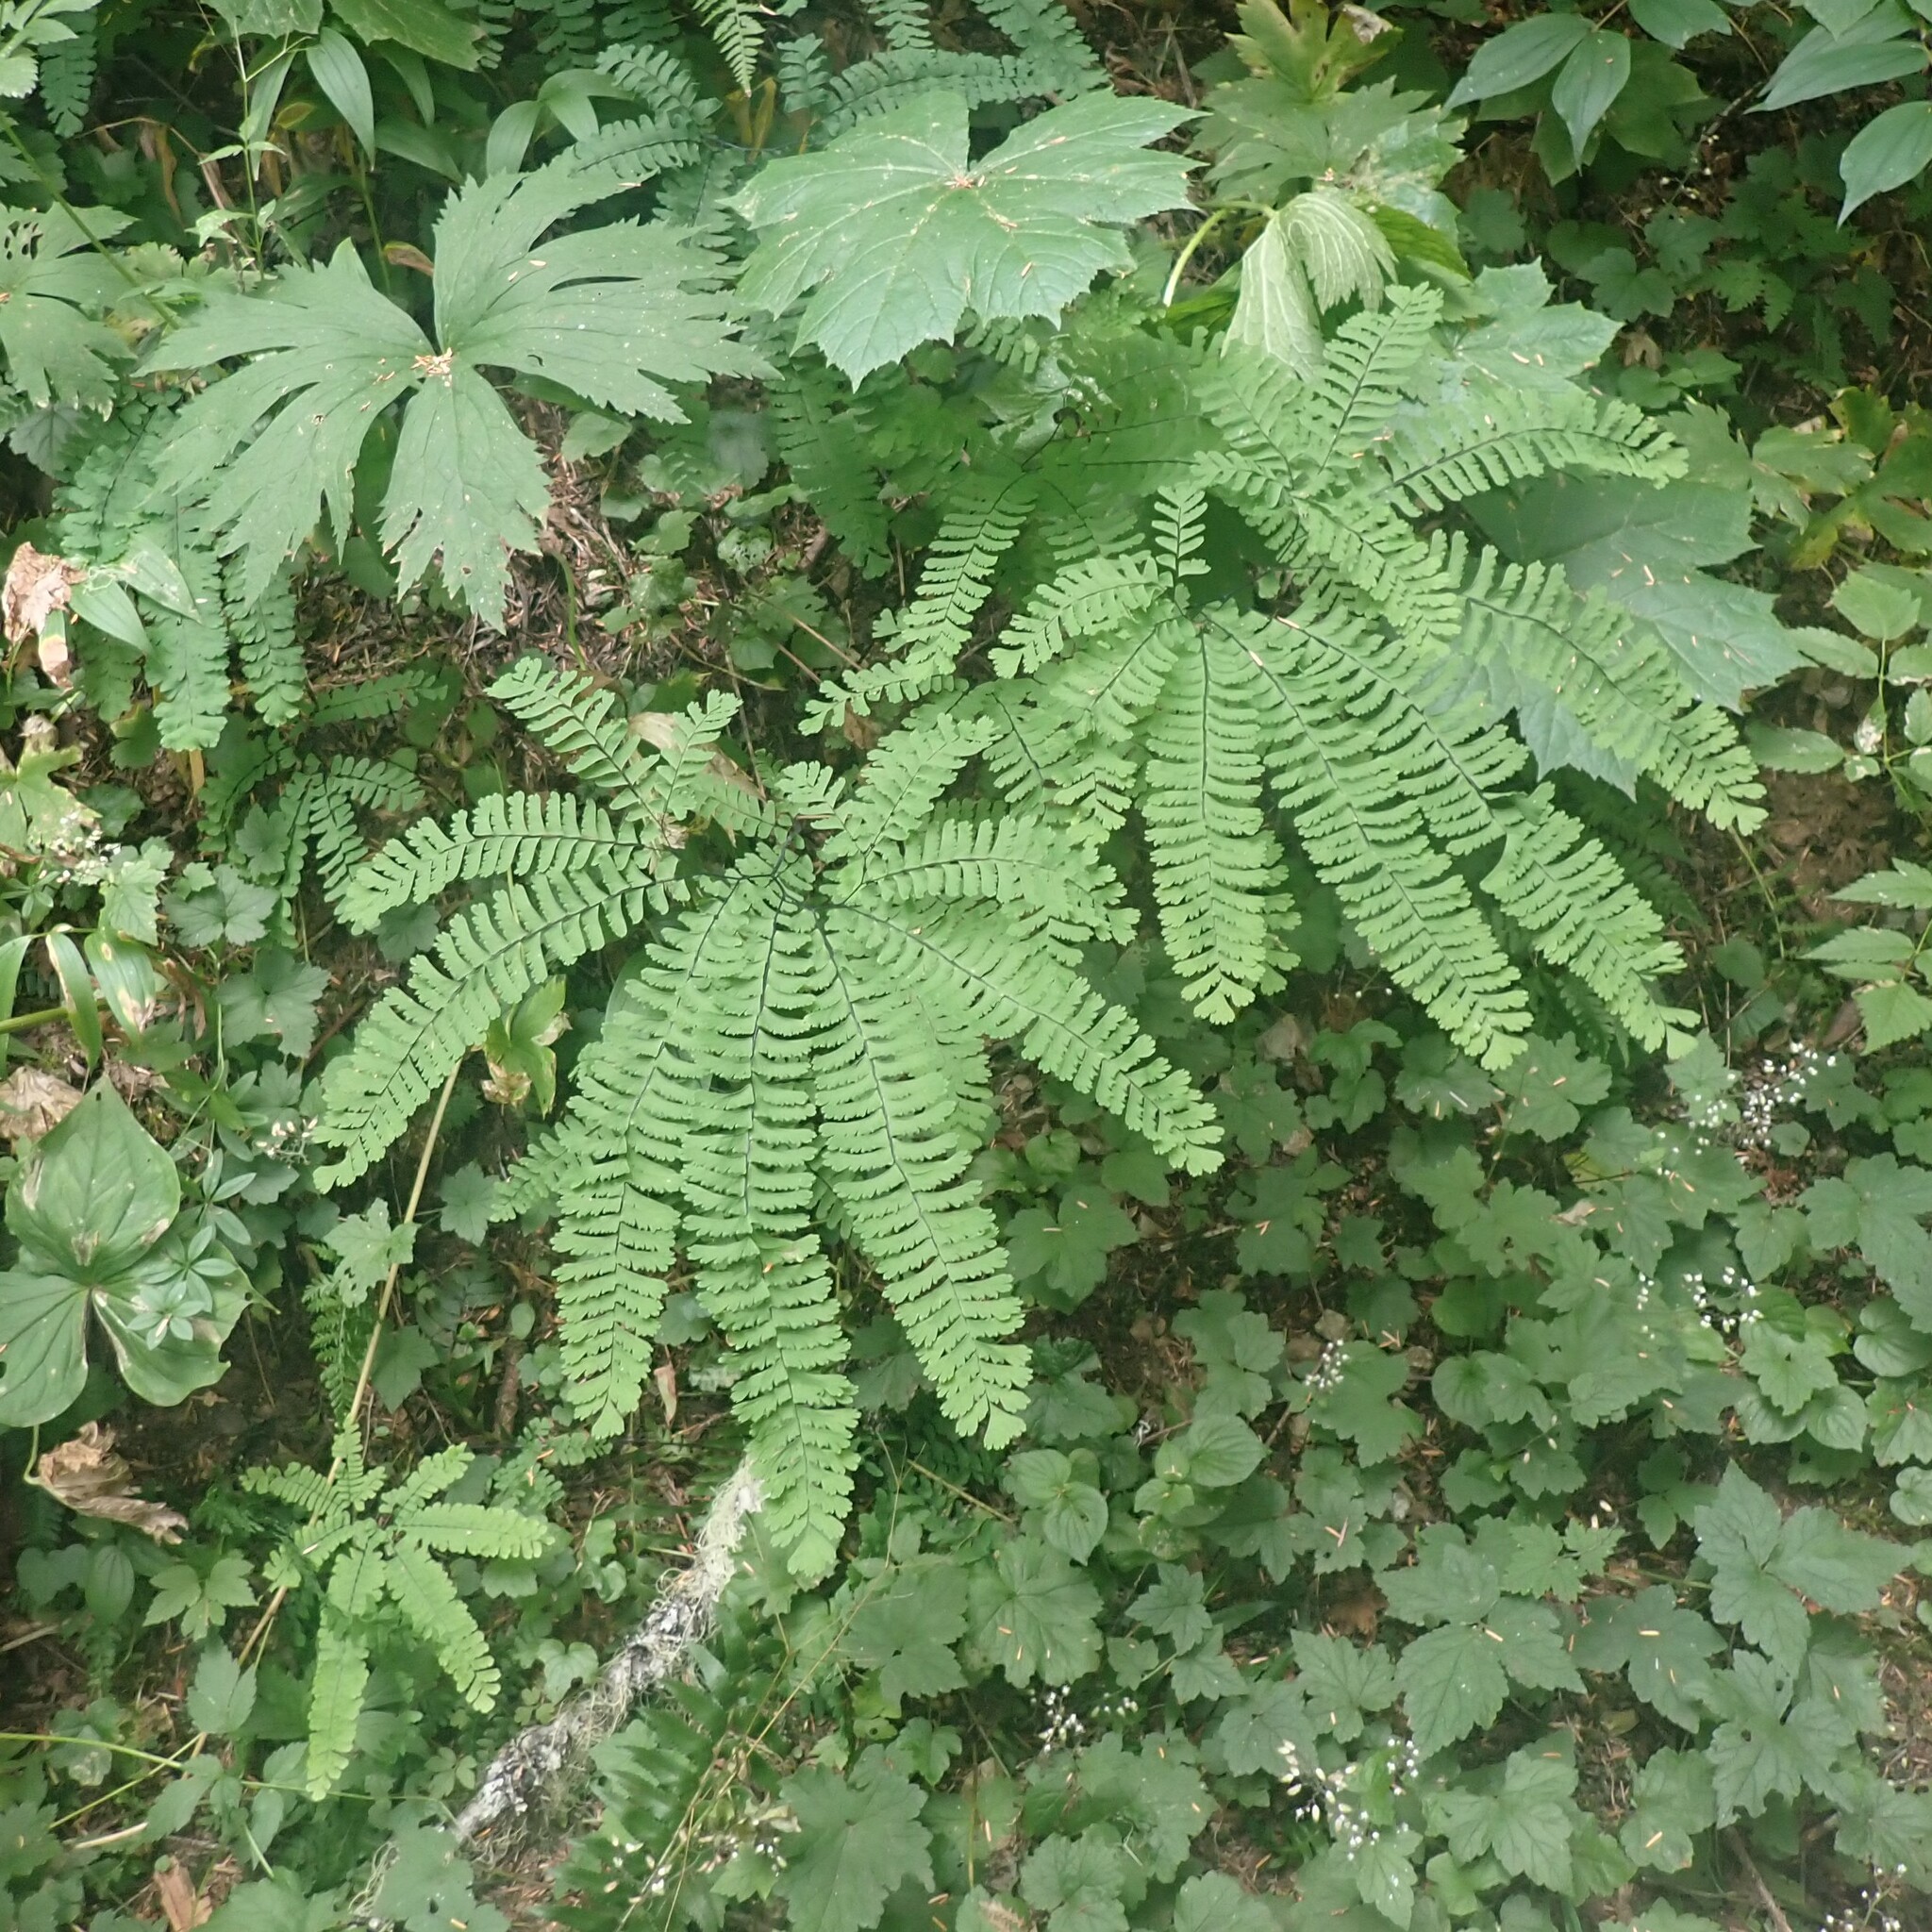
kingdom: Plantae
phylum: Tracheophyta
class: Polypodiopsida
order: Polypodiales
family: Pteridaceae
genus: Adiantum
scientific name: Adiantum aleuticum
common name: Aleutian maidenhair fern
